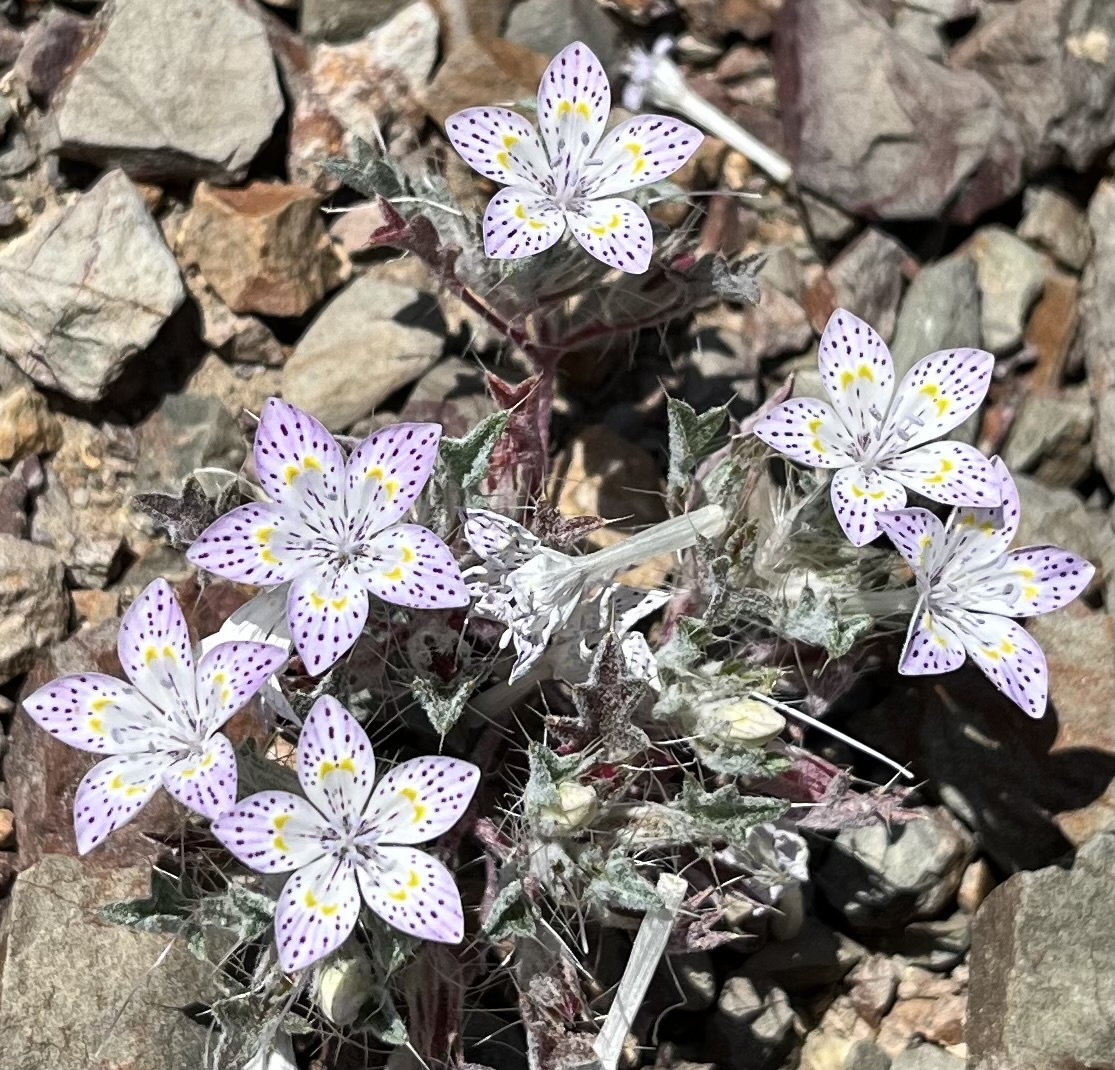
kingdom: Plantae
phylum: Tracheophyta
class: Magnoliopsida
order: Ericales
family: Polemoniaceae
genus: Langloisia
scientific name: Langloisia setosissima
